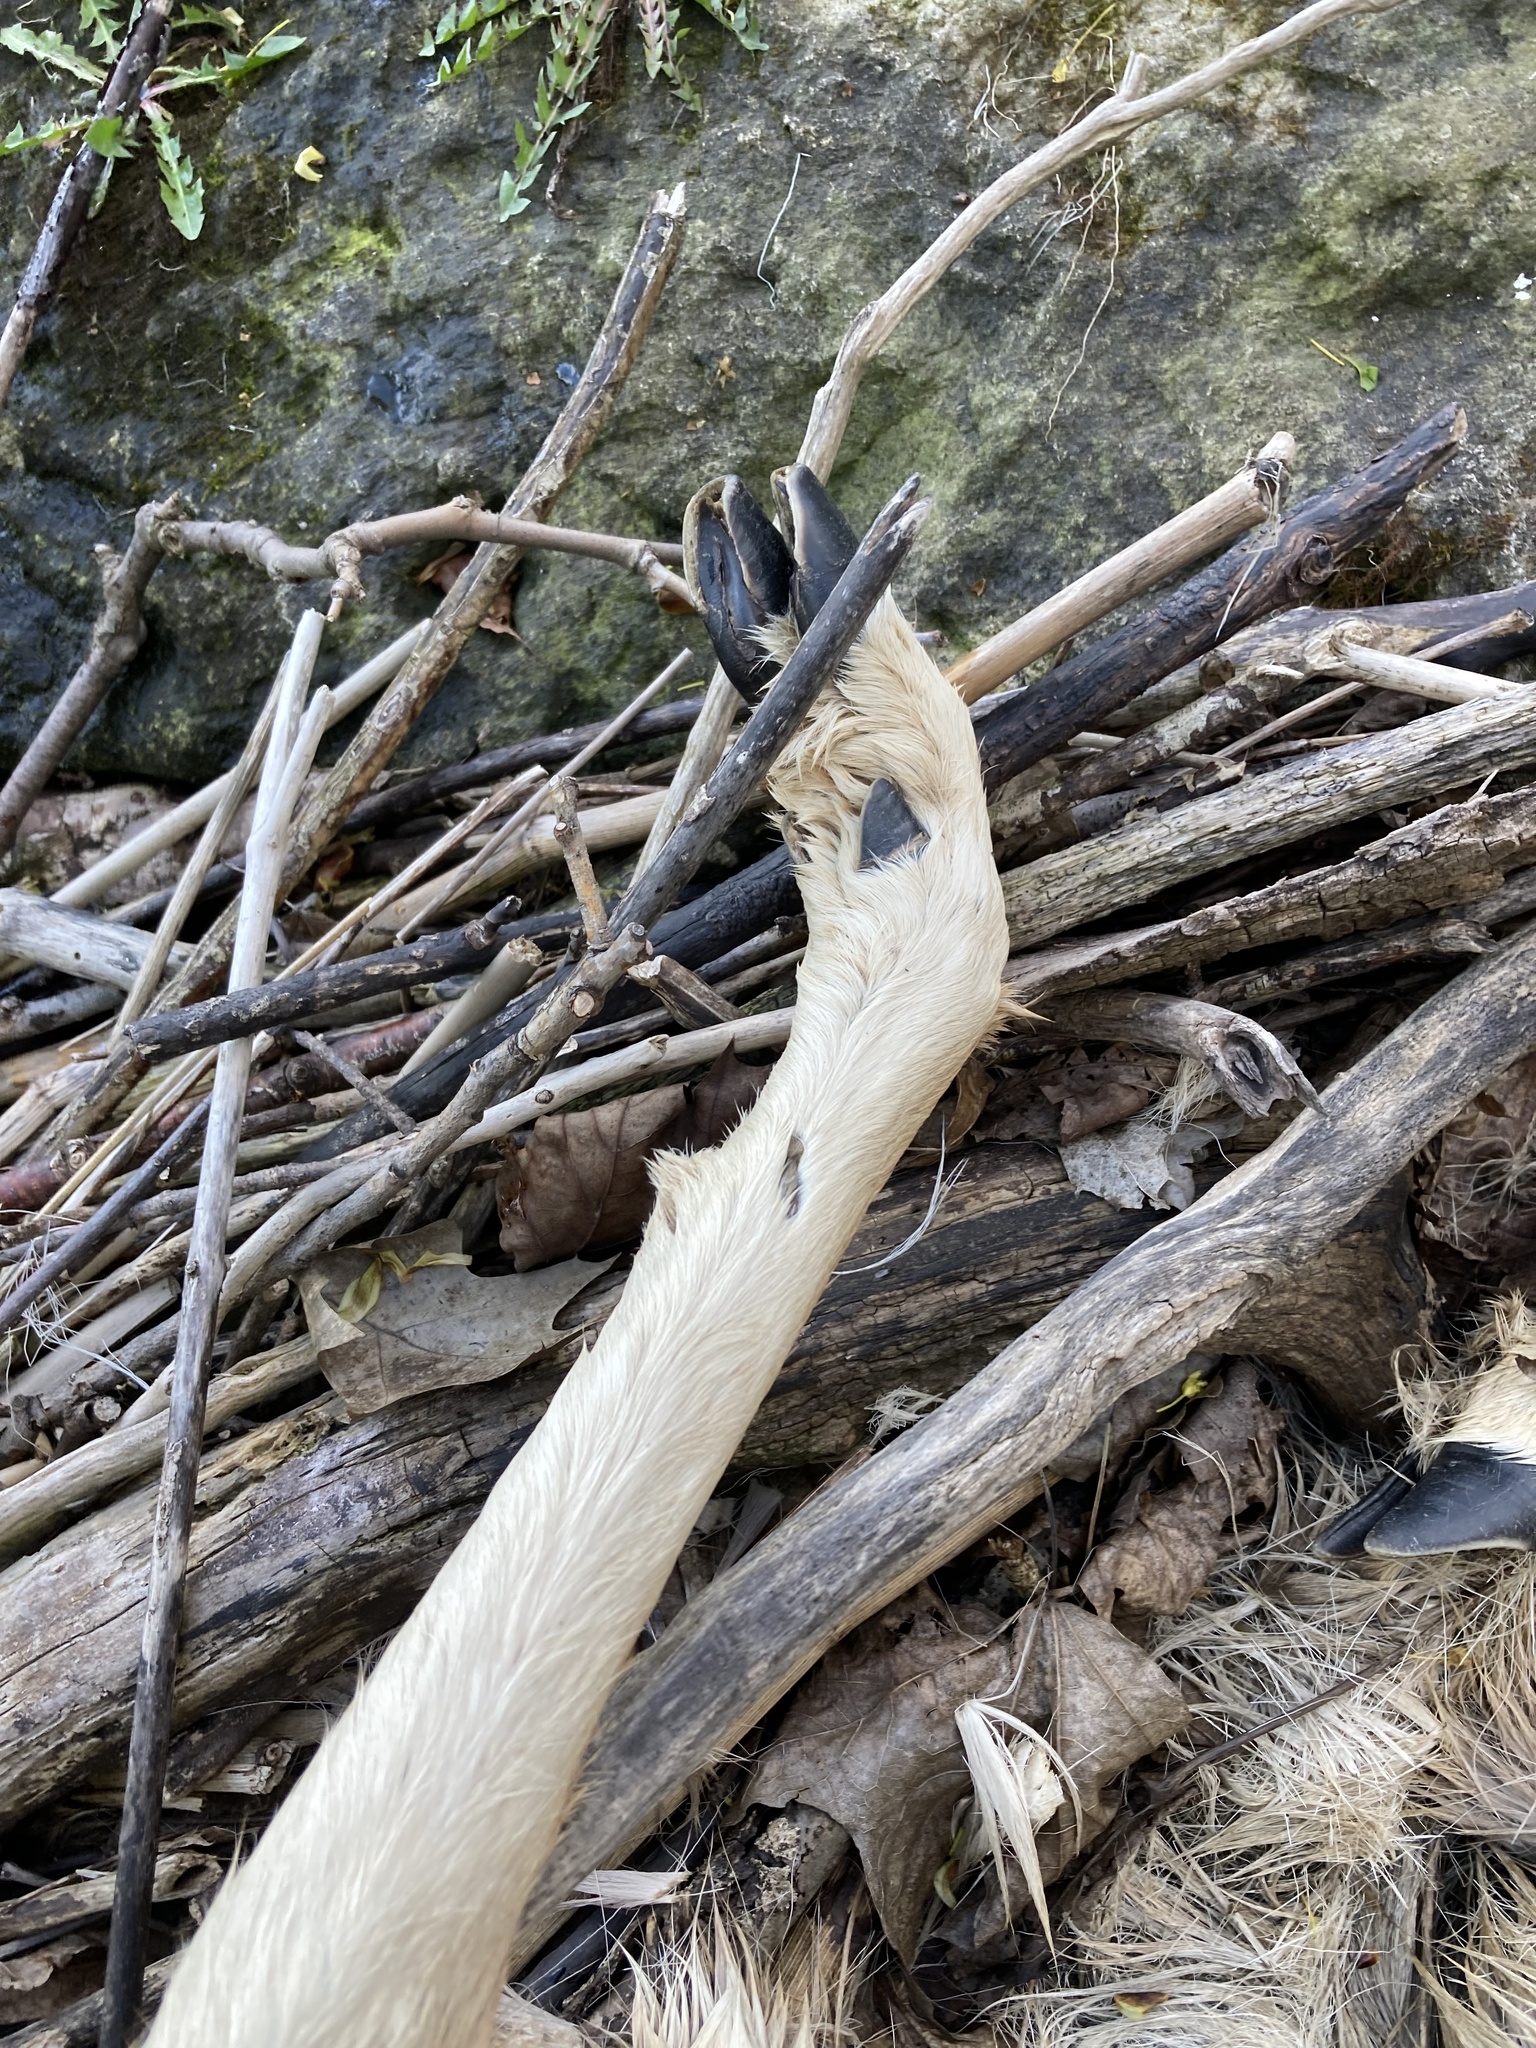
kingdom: Animalia
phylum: Chordata
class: Mammalia
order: Artiodactyla
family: Cervidae
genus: Odocoileus
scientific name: Odocoileus virginianus
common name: White-tailed deer
